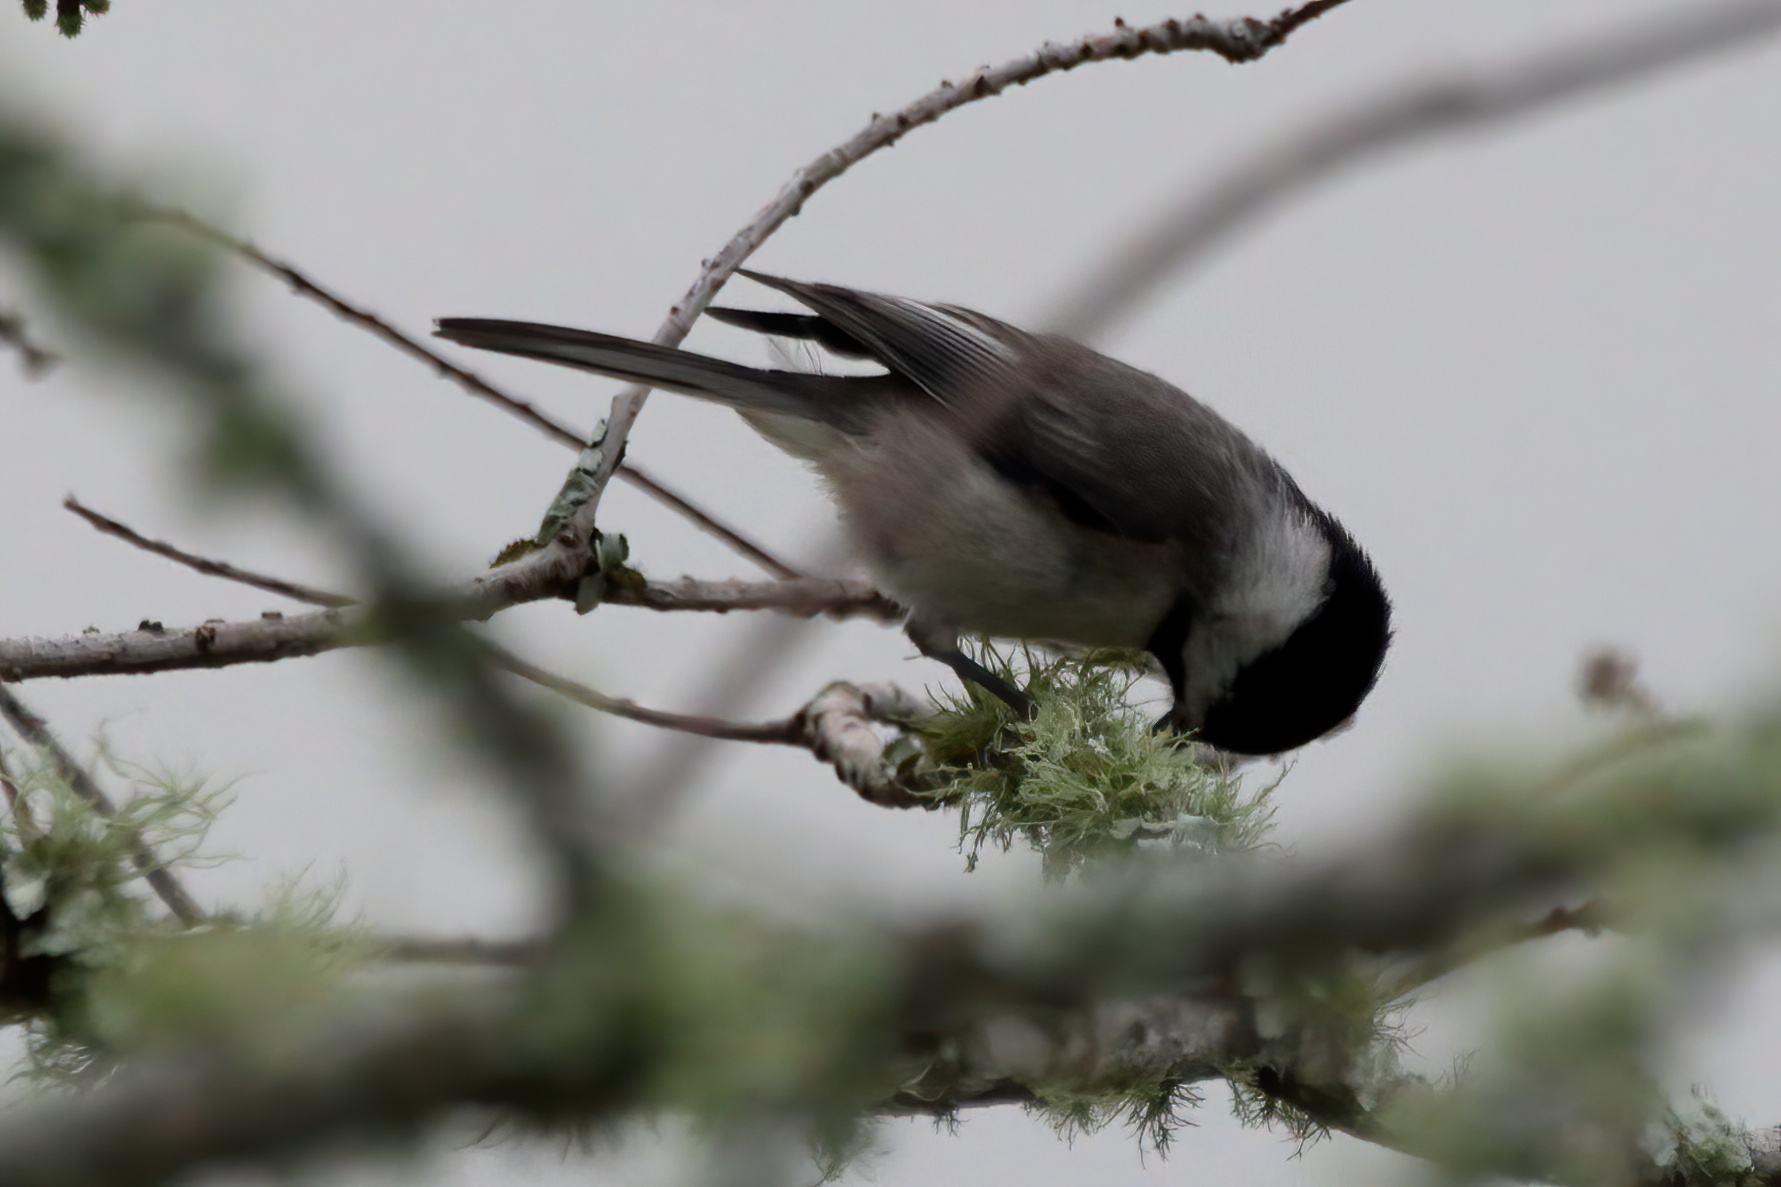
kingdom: Animalia
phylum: Chordata
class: Aves
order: Passeriformes
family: Paridae
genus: Poecile
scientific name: Poecile carolinensis
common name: Carolina chickadee
